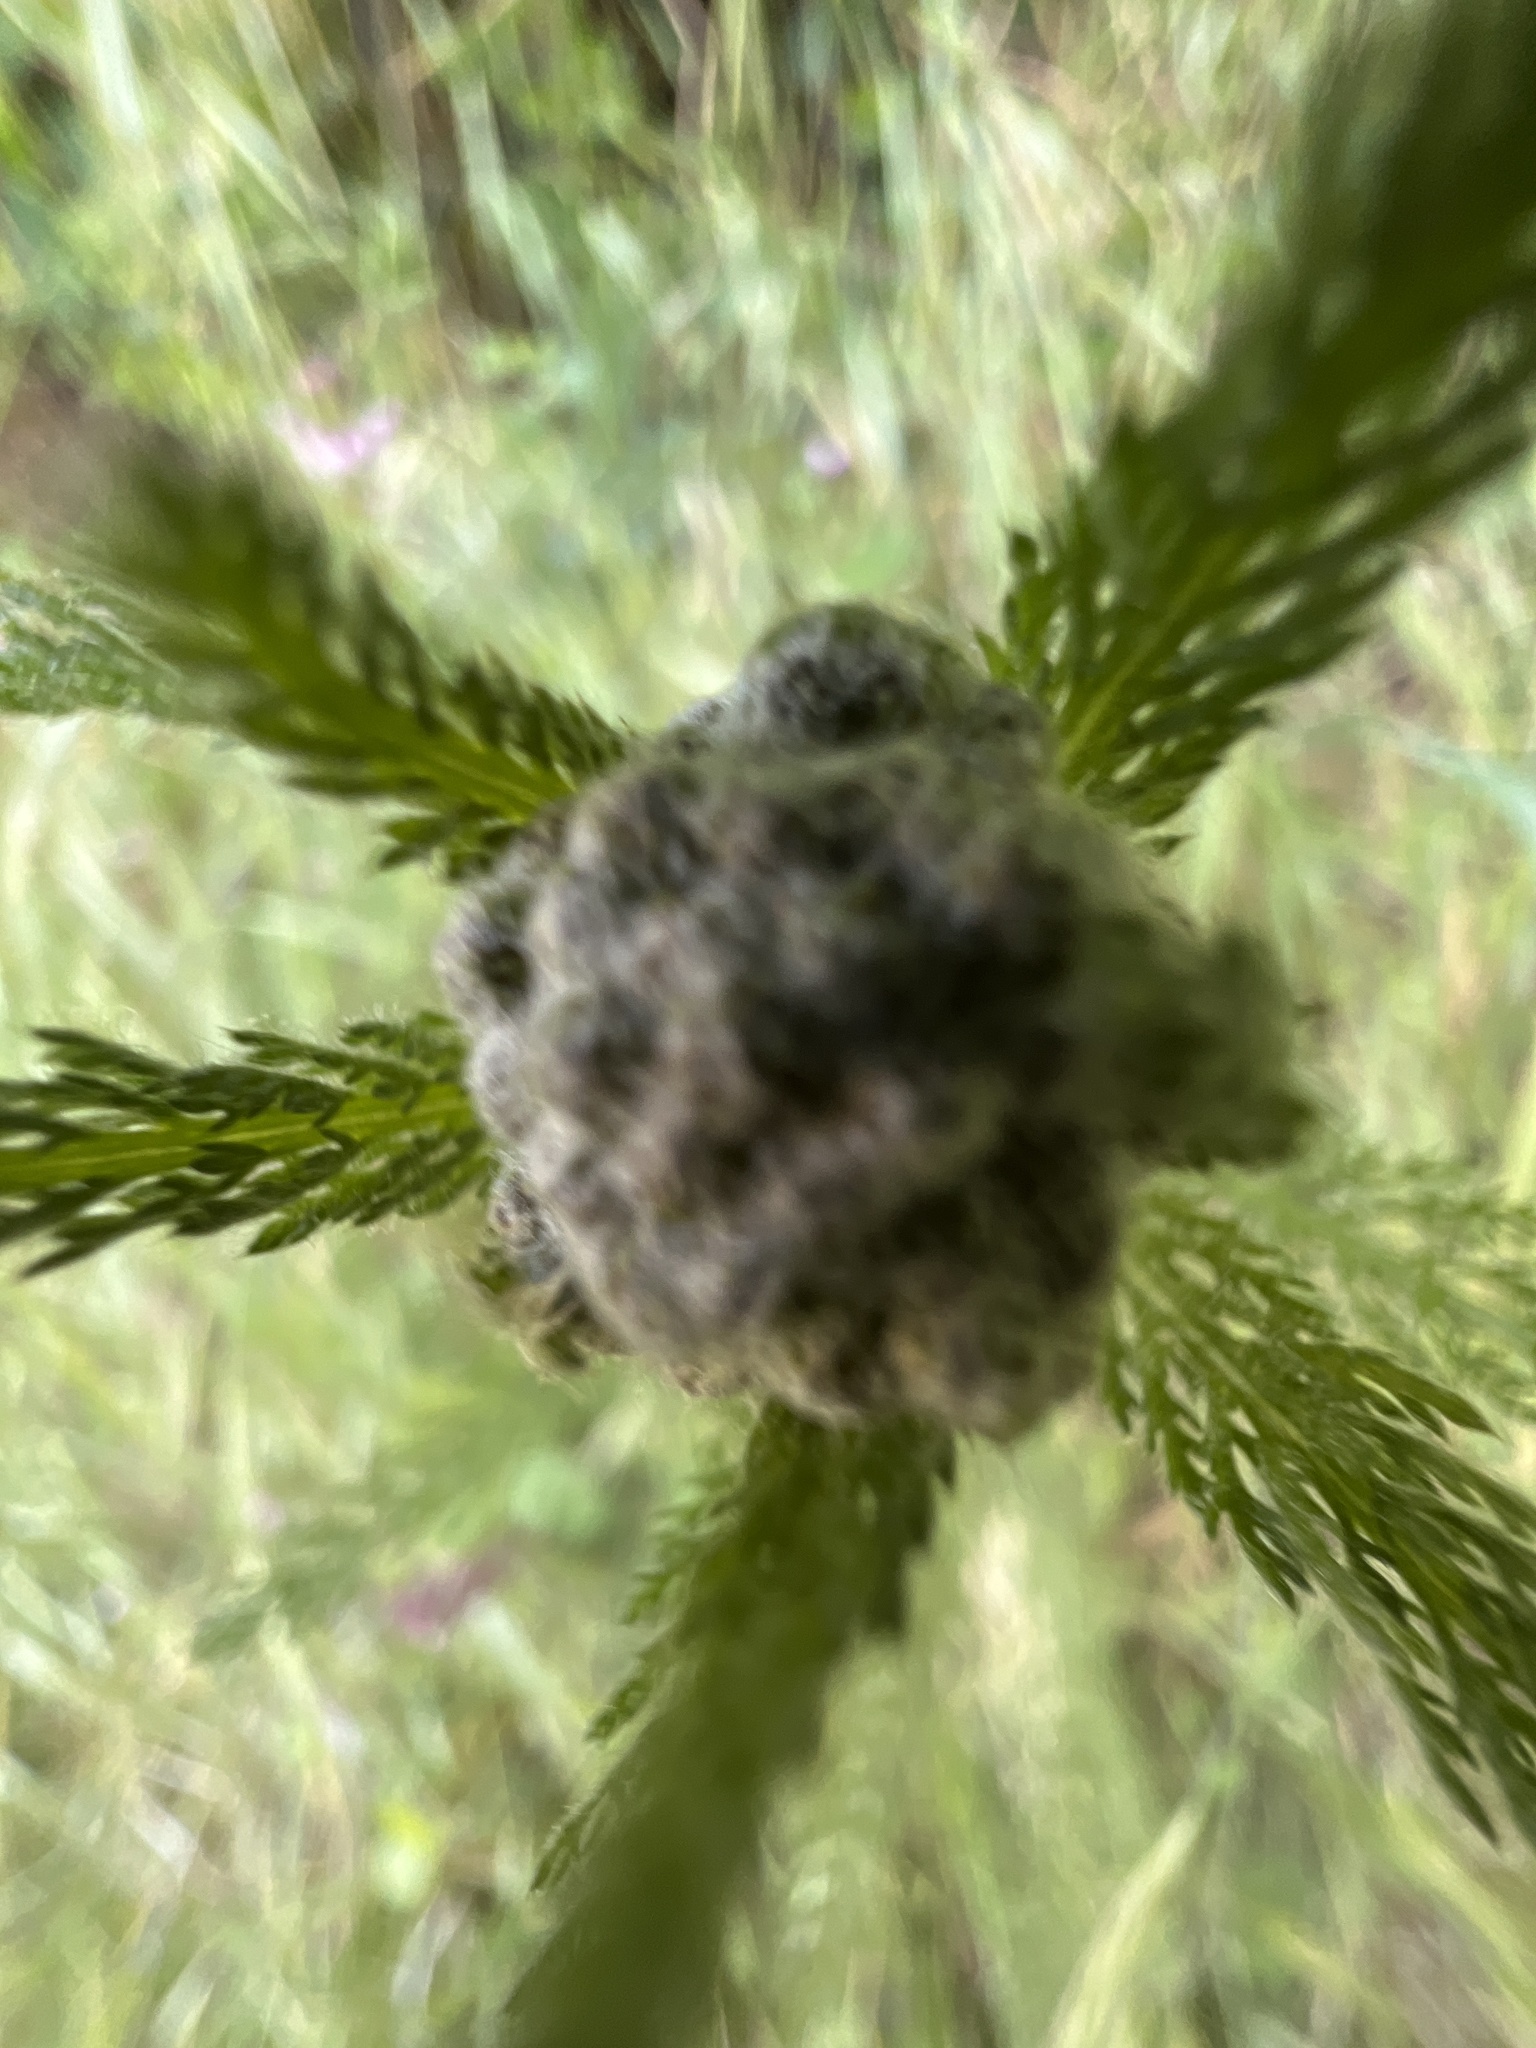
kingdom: Plantae
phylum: Tracheophyta
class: Magnoliopsida
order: Asterales
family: Asteraceae
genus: Achillea
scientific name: Achillea millefolium
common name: Yarrow
